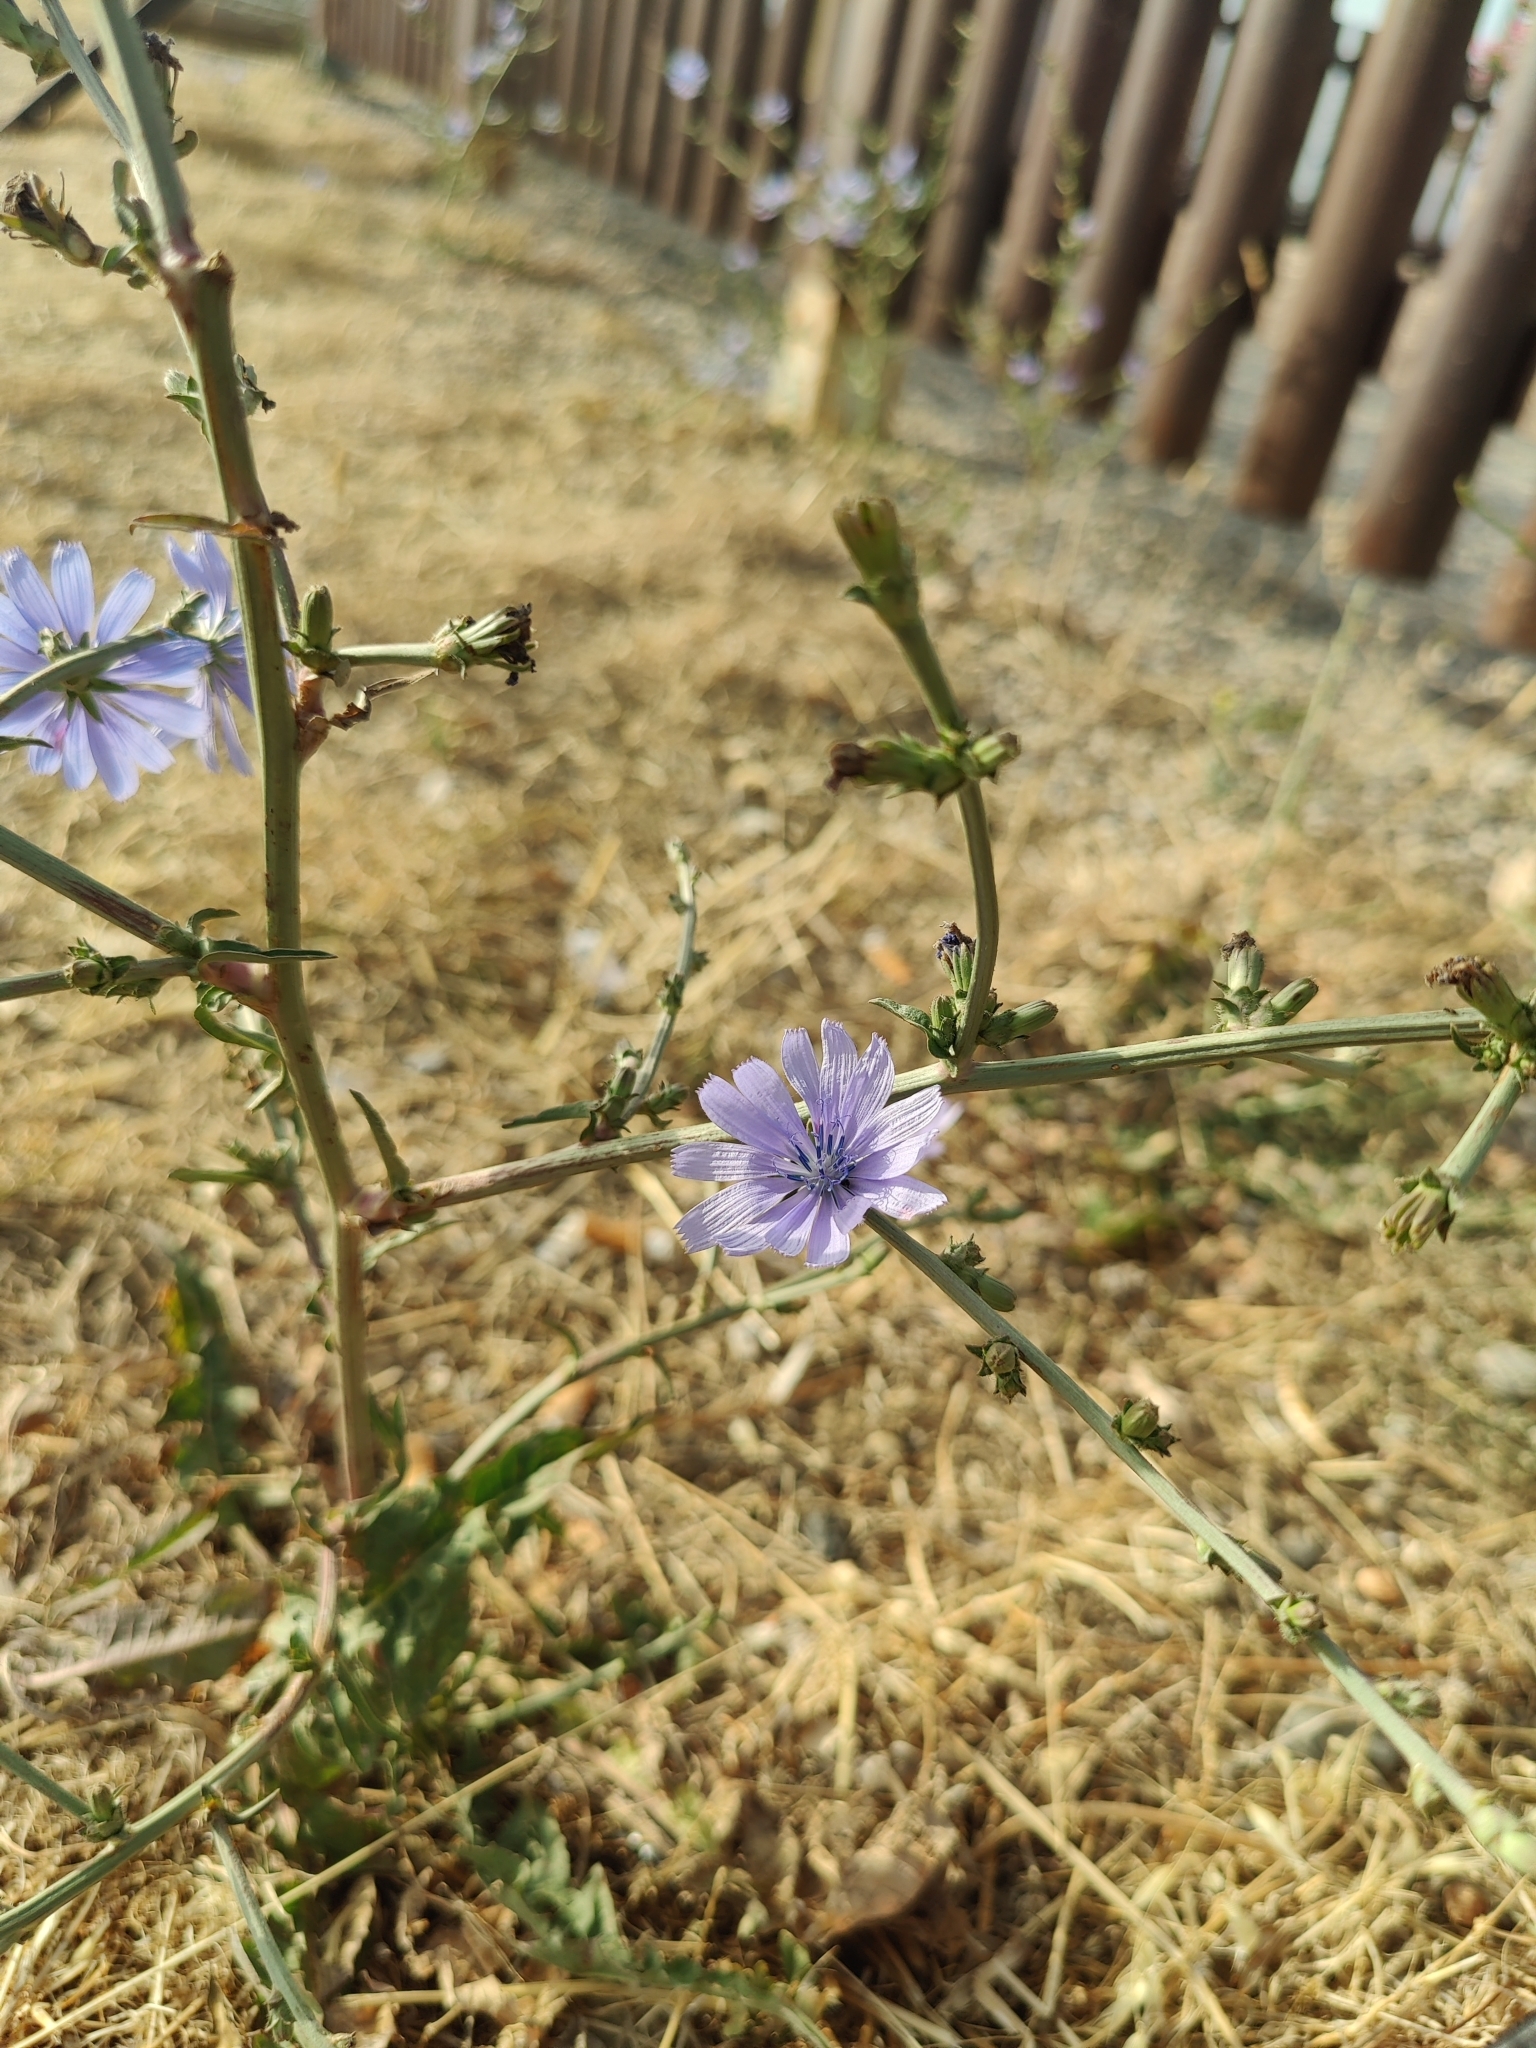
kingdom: Plantae
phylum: Tracheophyta
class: Magnoliopsida
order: Asterales
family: Asteraceae
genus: Cichorium
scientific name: Cichorium intybus
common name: Chicory
